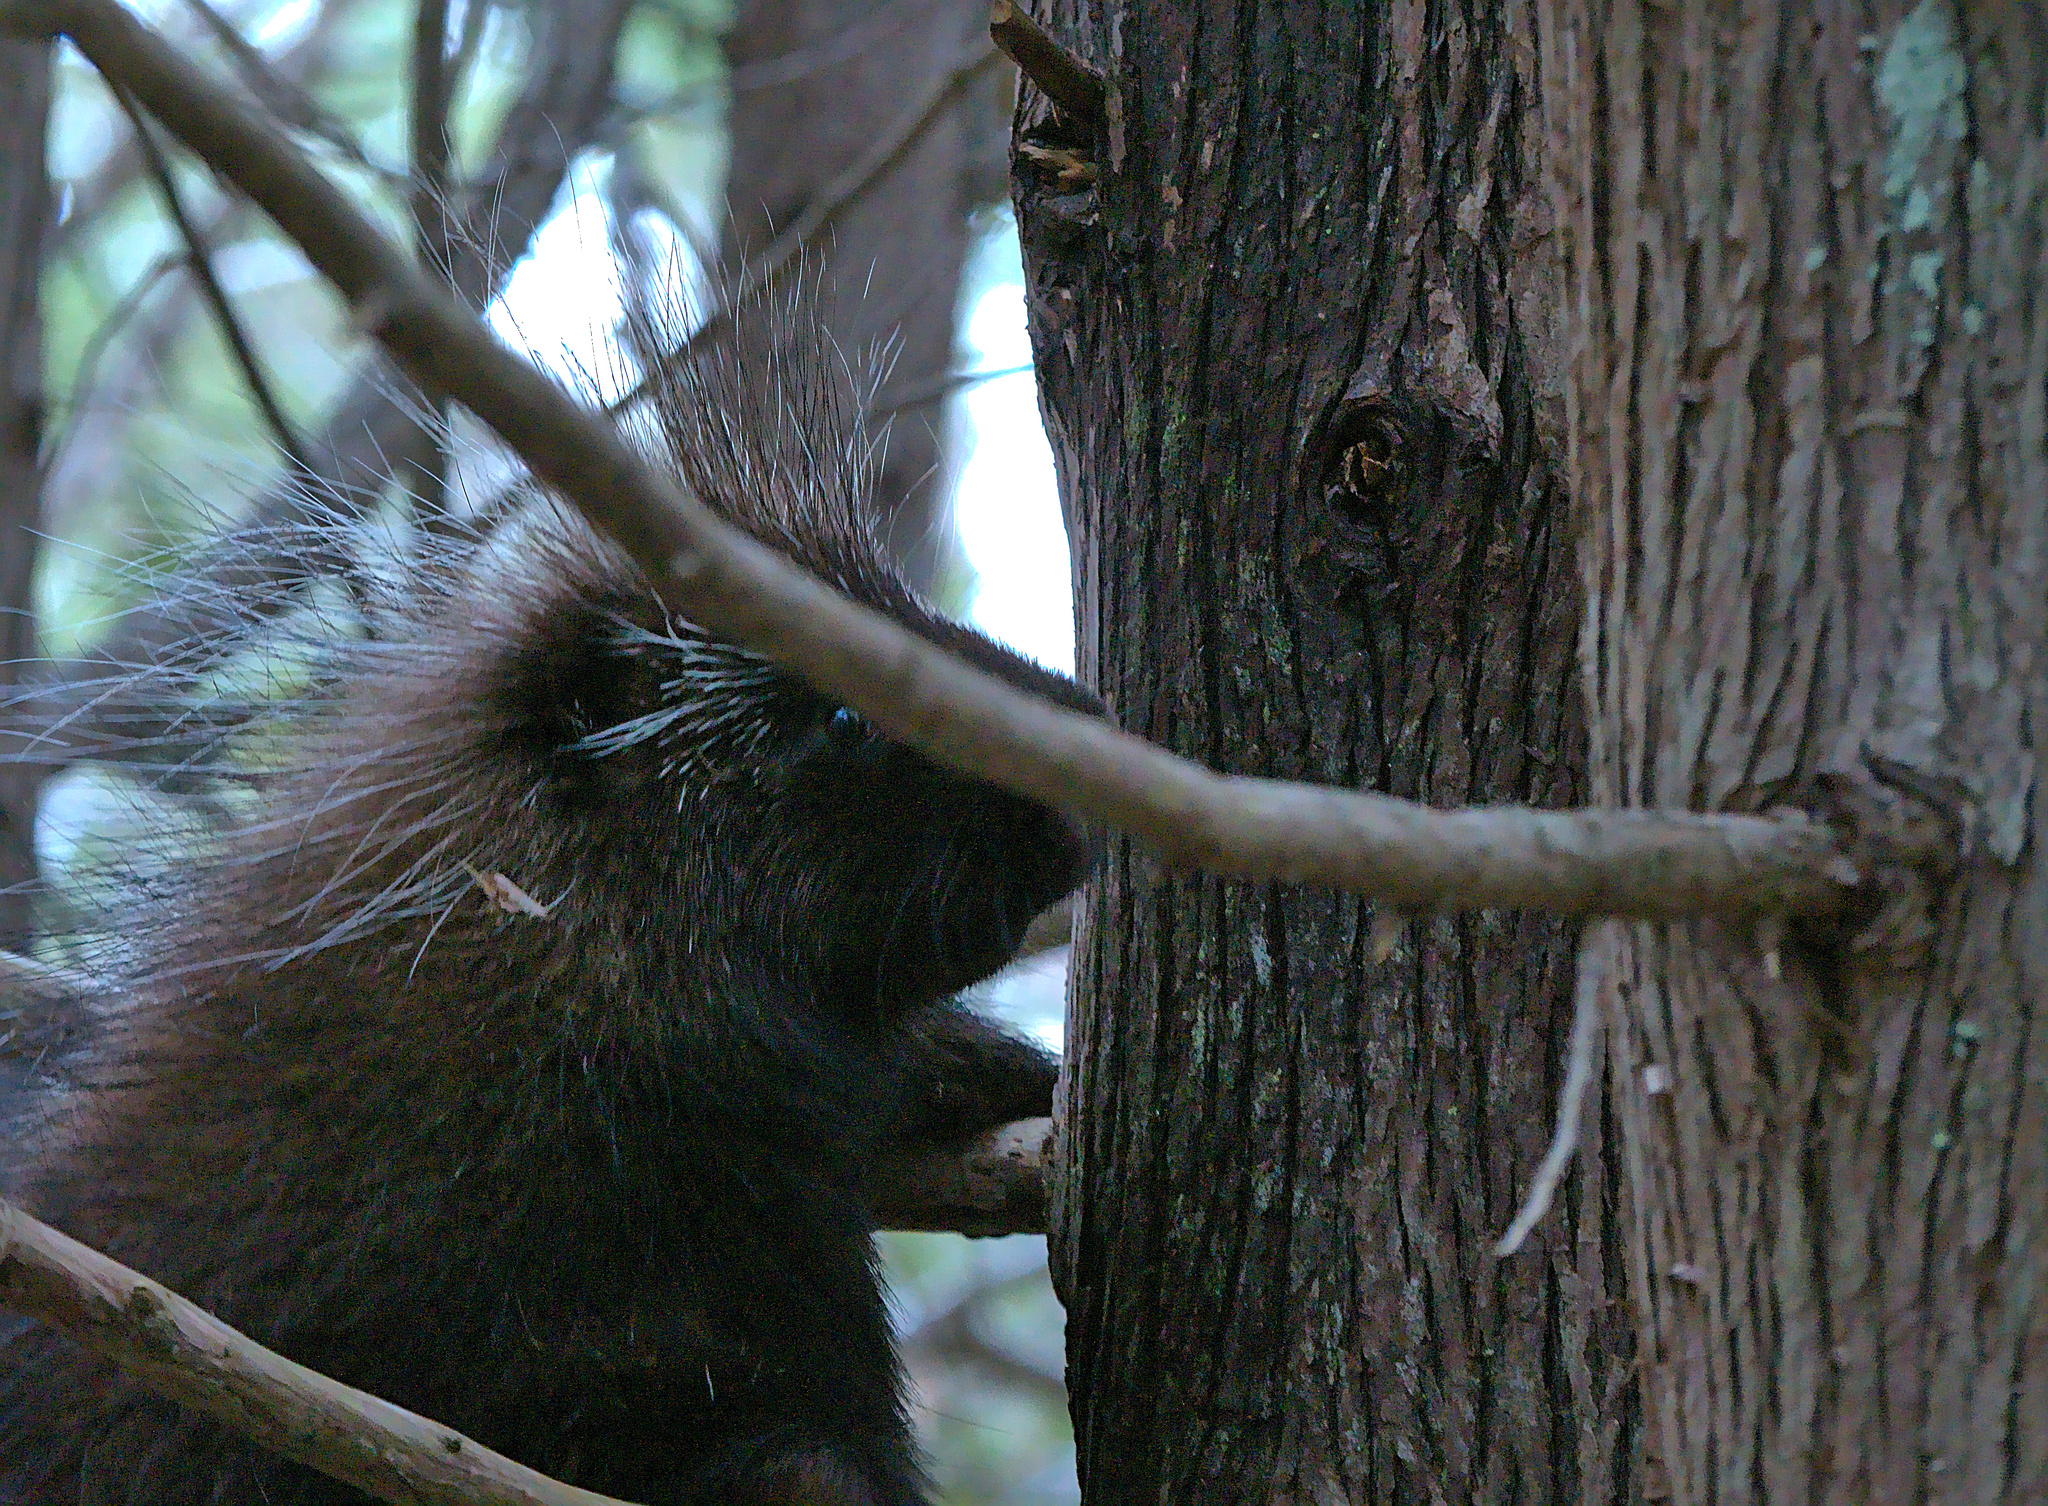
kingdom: Animalia
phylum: Chordata
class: Mammalia
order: Rodentia
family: Erethizontidae
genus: Erethizon
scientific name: Erethizon dorsatus
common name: North american porcupine
